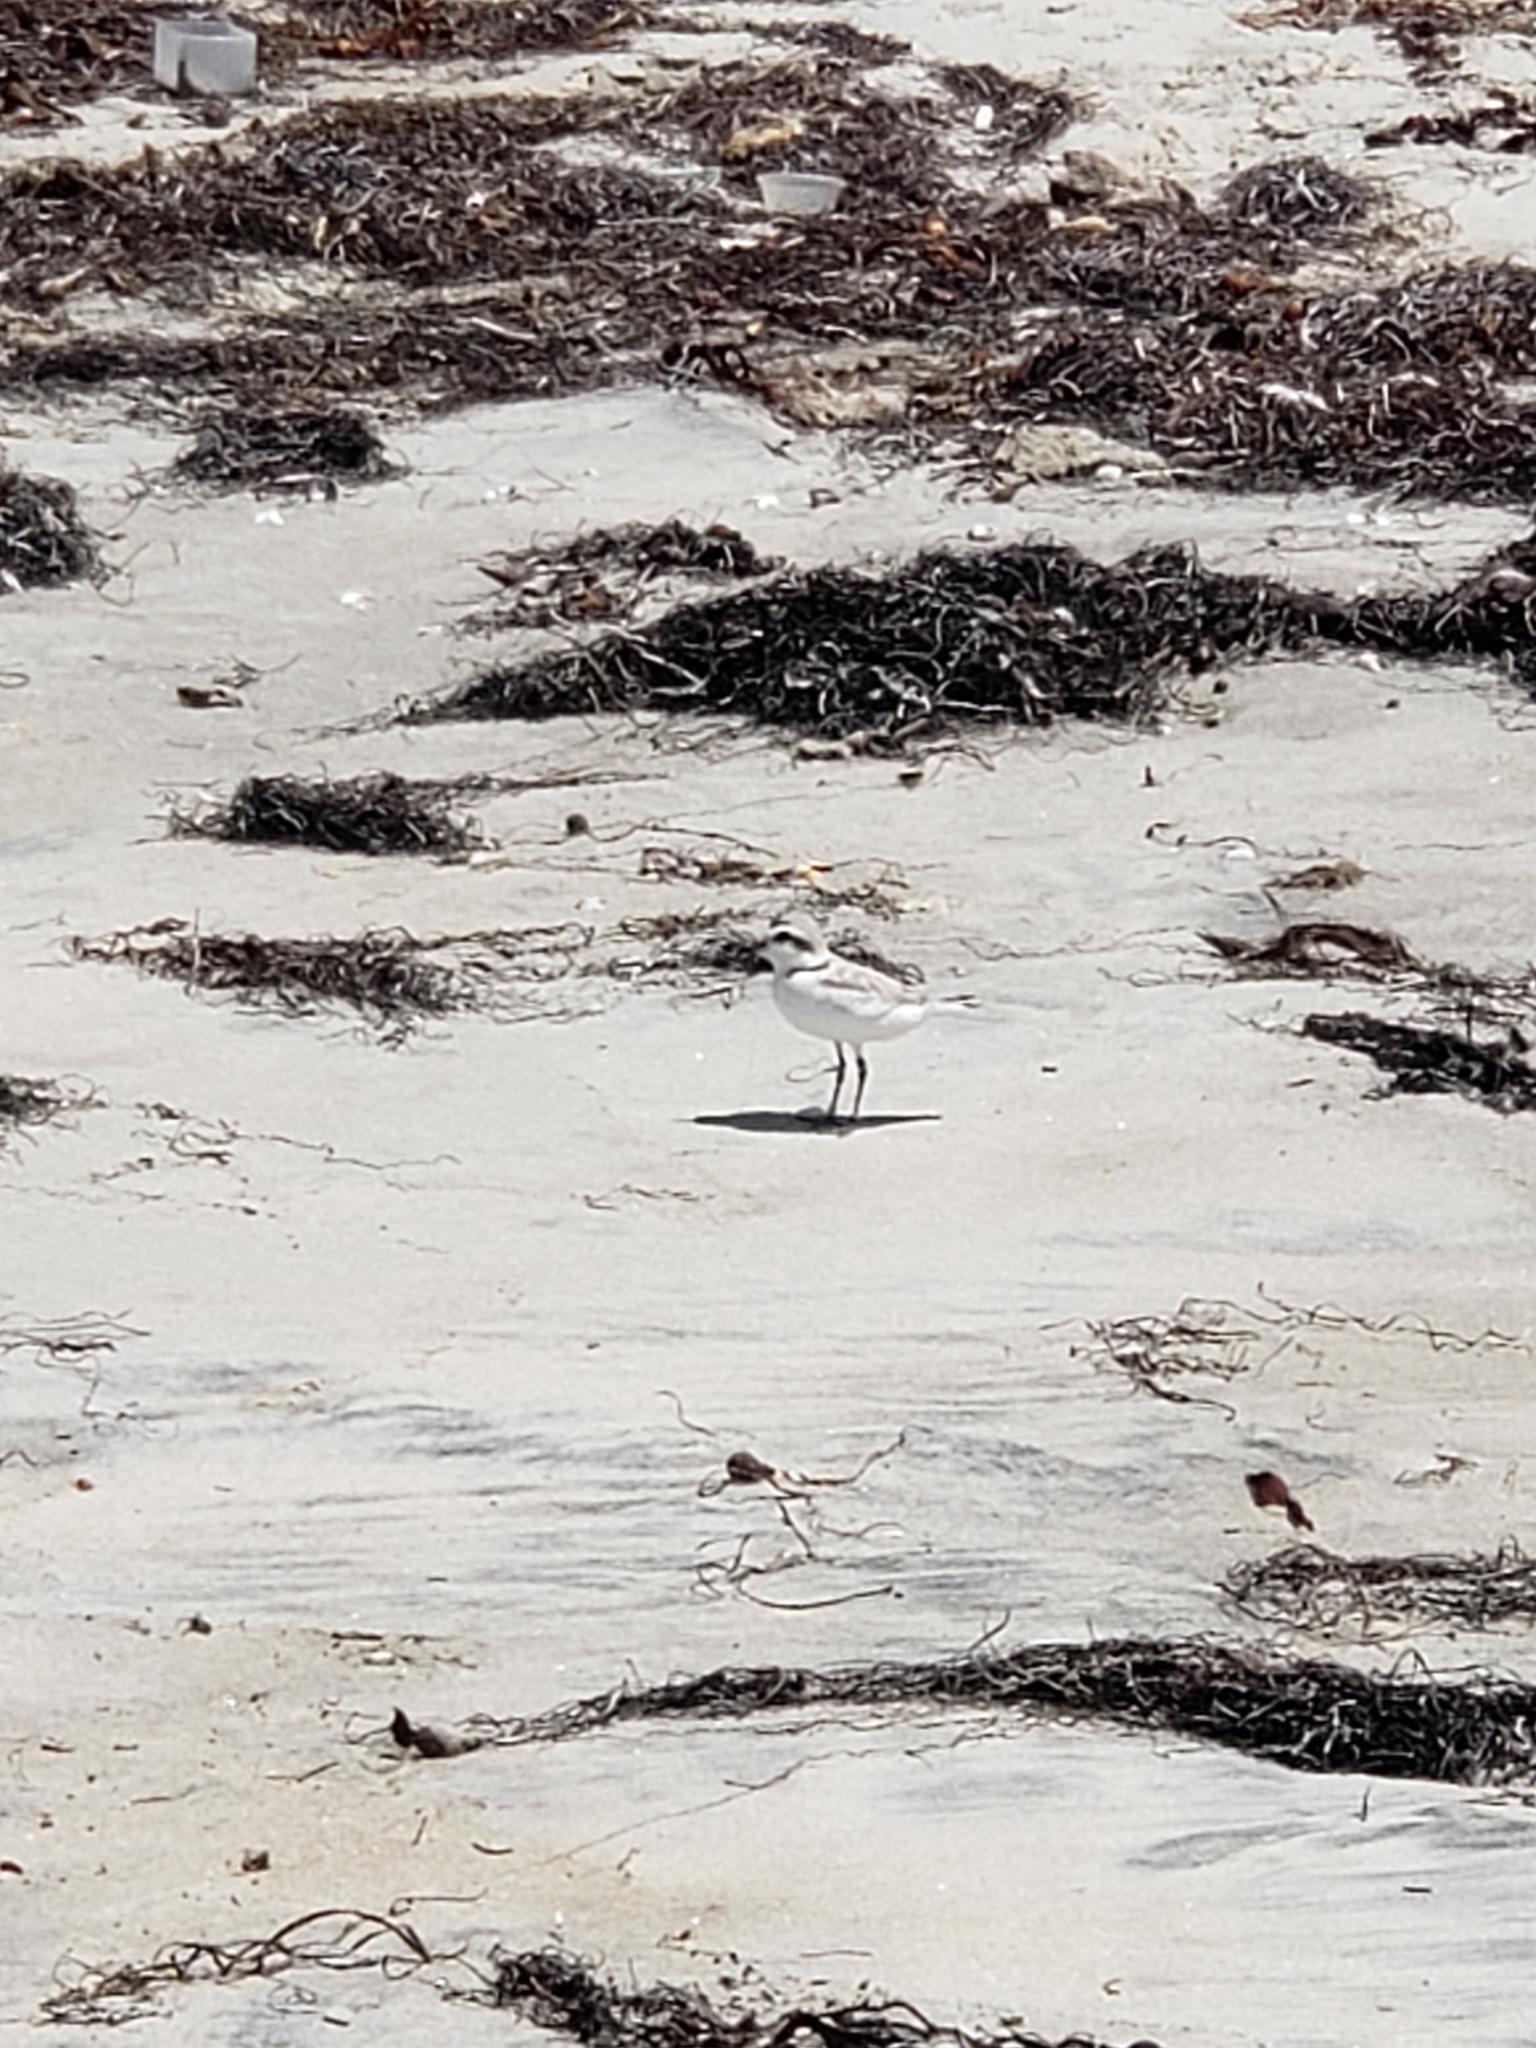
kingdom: Animalia
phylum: Chordata
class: Aves
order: Charadriiformes
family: Charadriidae
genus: Anarhynchus
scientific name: Anarhynchus
